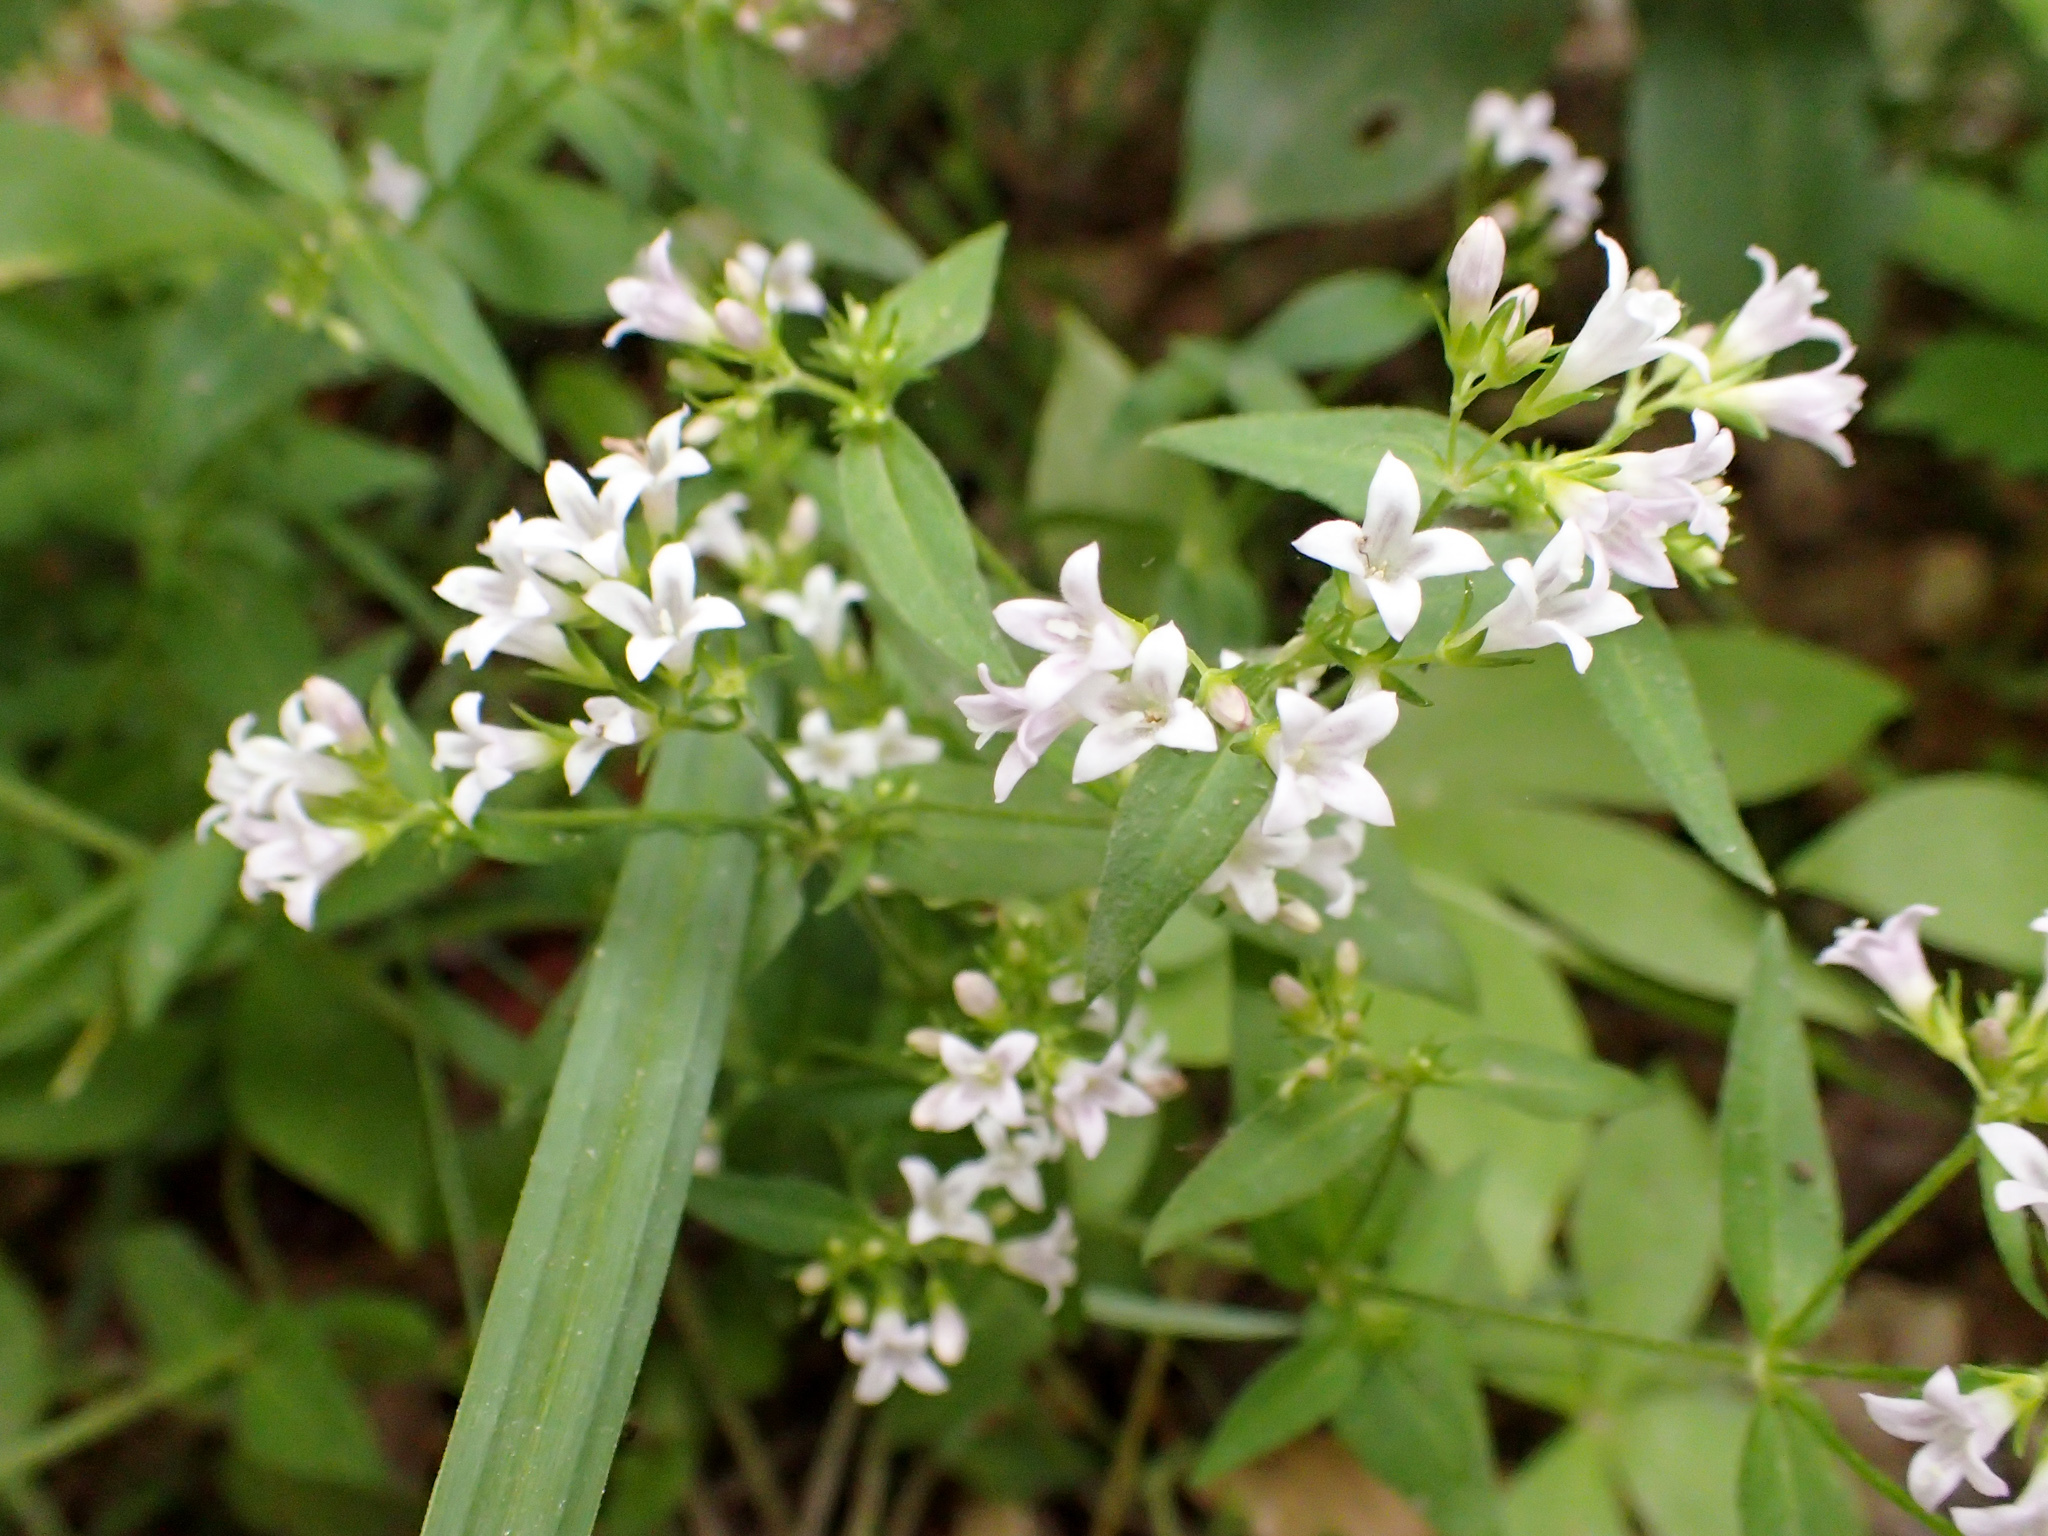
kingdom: Plantae
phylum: Tracheophyta
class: Magnoliopsida
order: Gentianales
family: Rubiaceae
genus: Houstonia
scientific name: Houstonia purpurea
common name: Summer bluet
